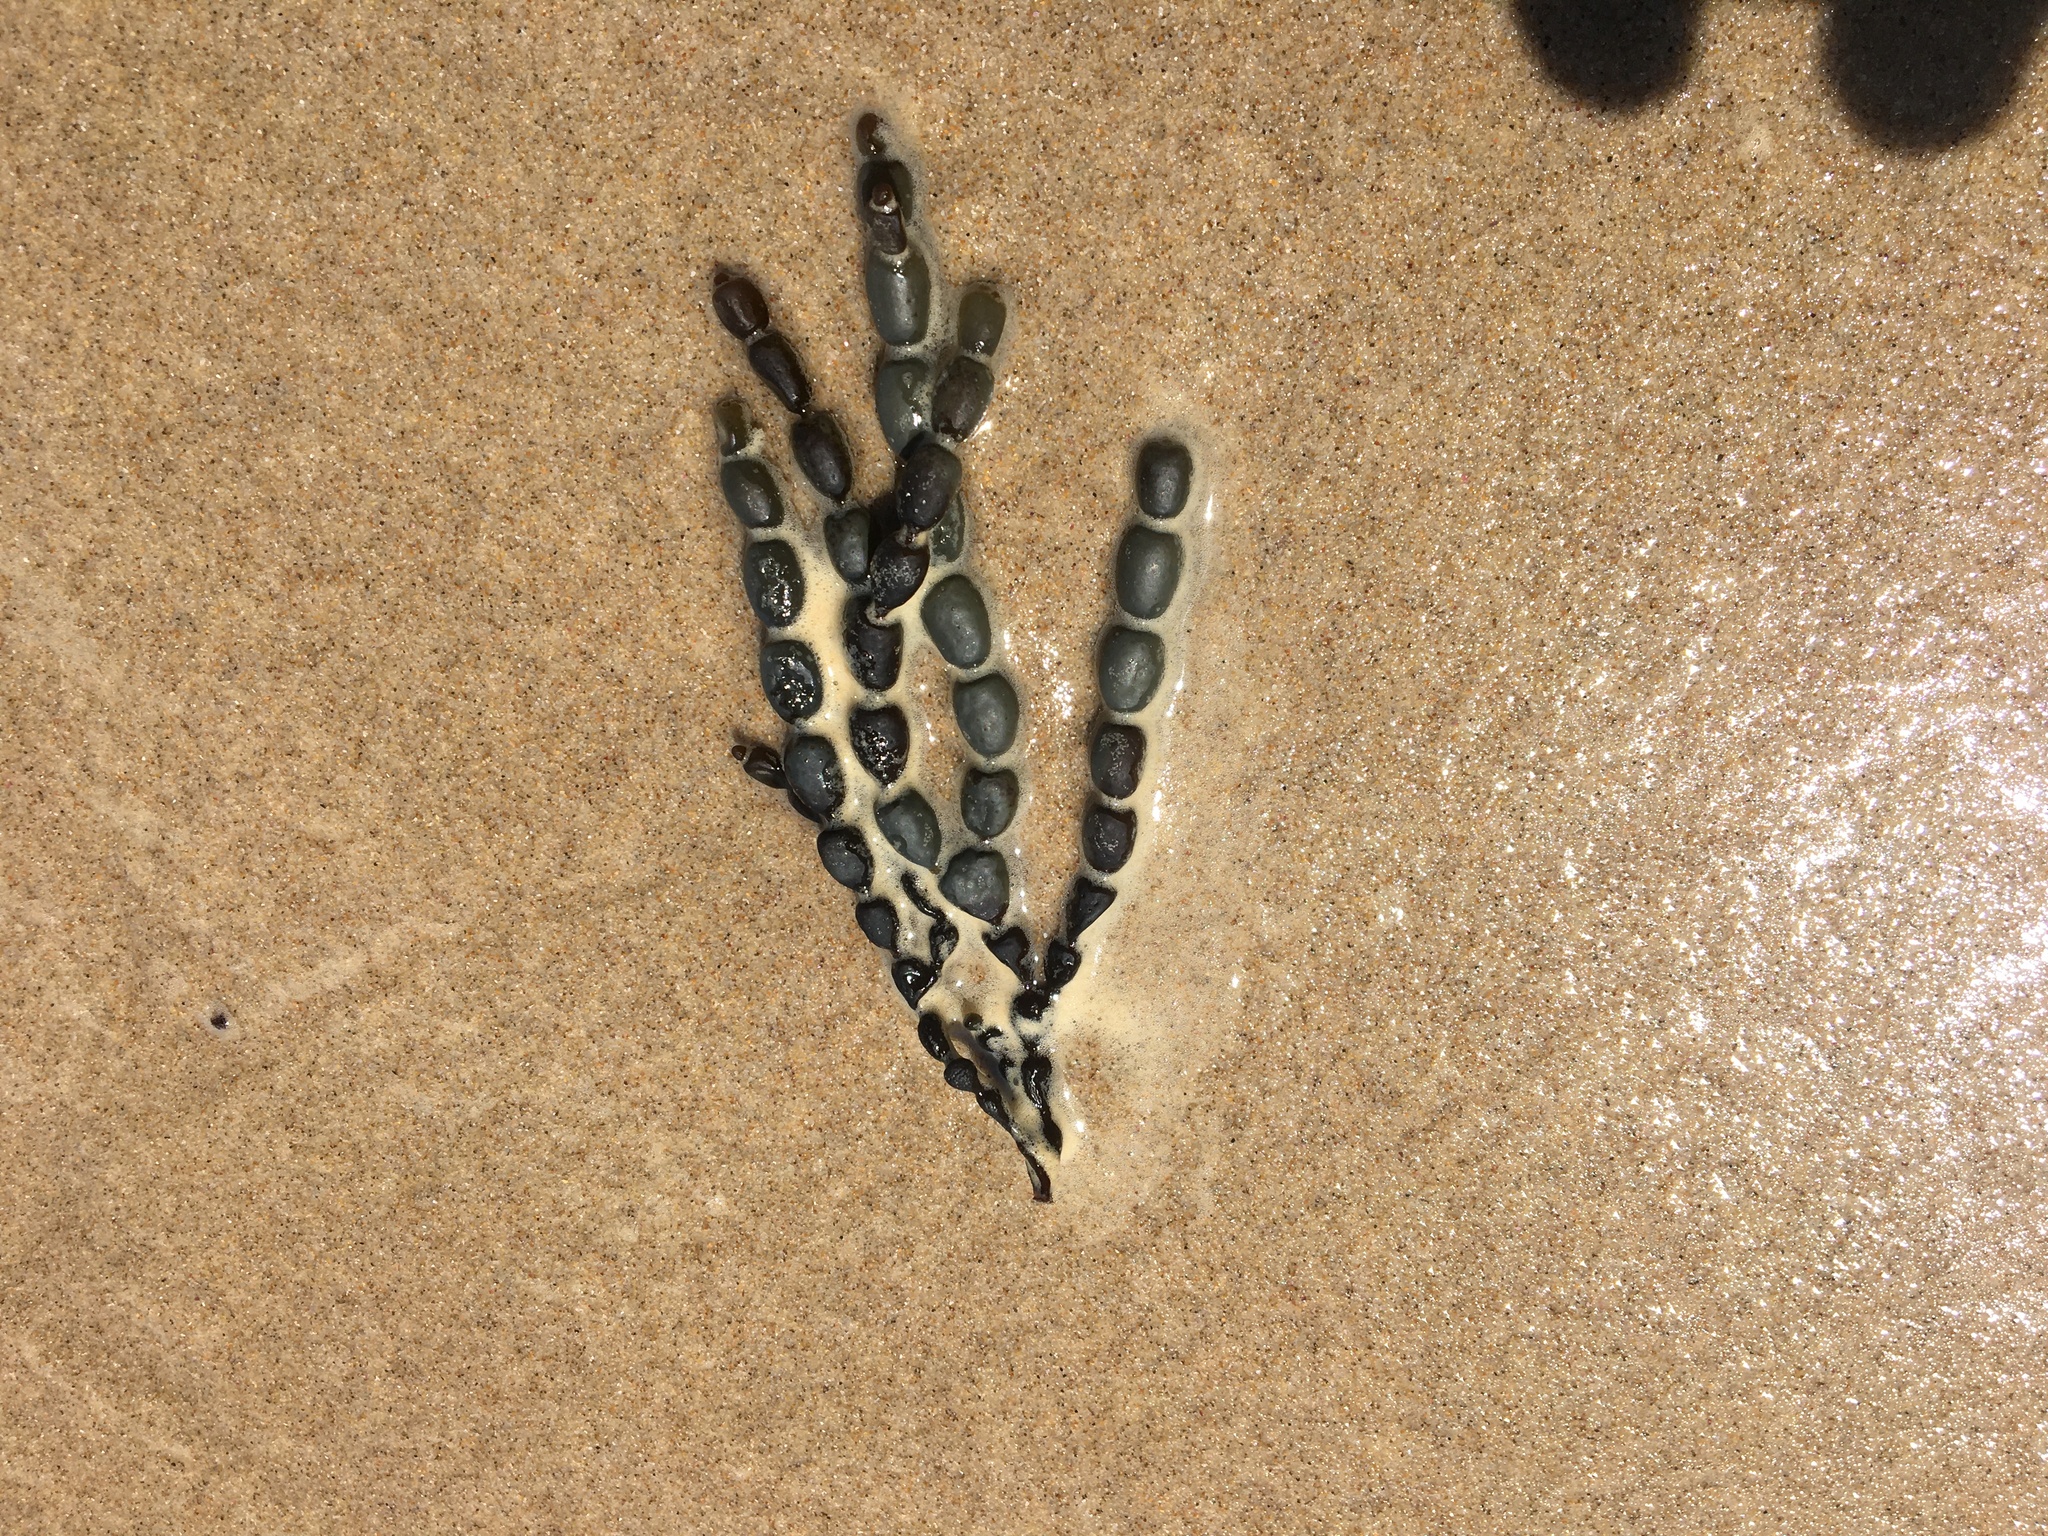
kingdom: Chromista
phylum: Ochrophyta
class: Phaeophyceae
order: Fucales
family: Hormosiraceae
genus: Hormosira
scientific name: Hormosira banksii
